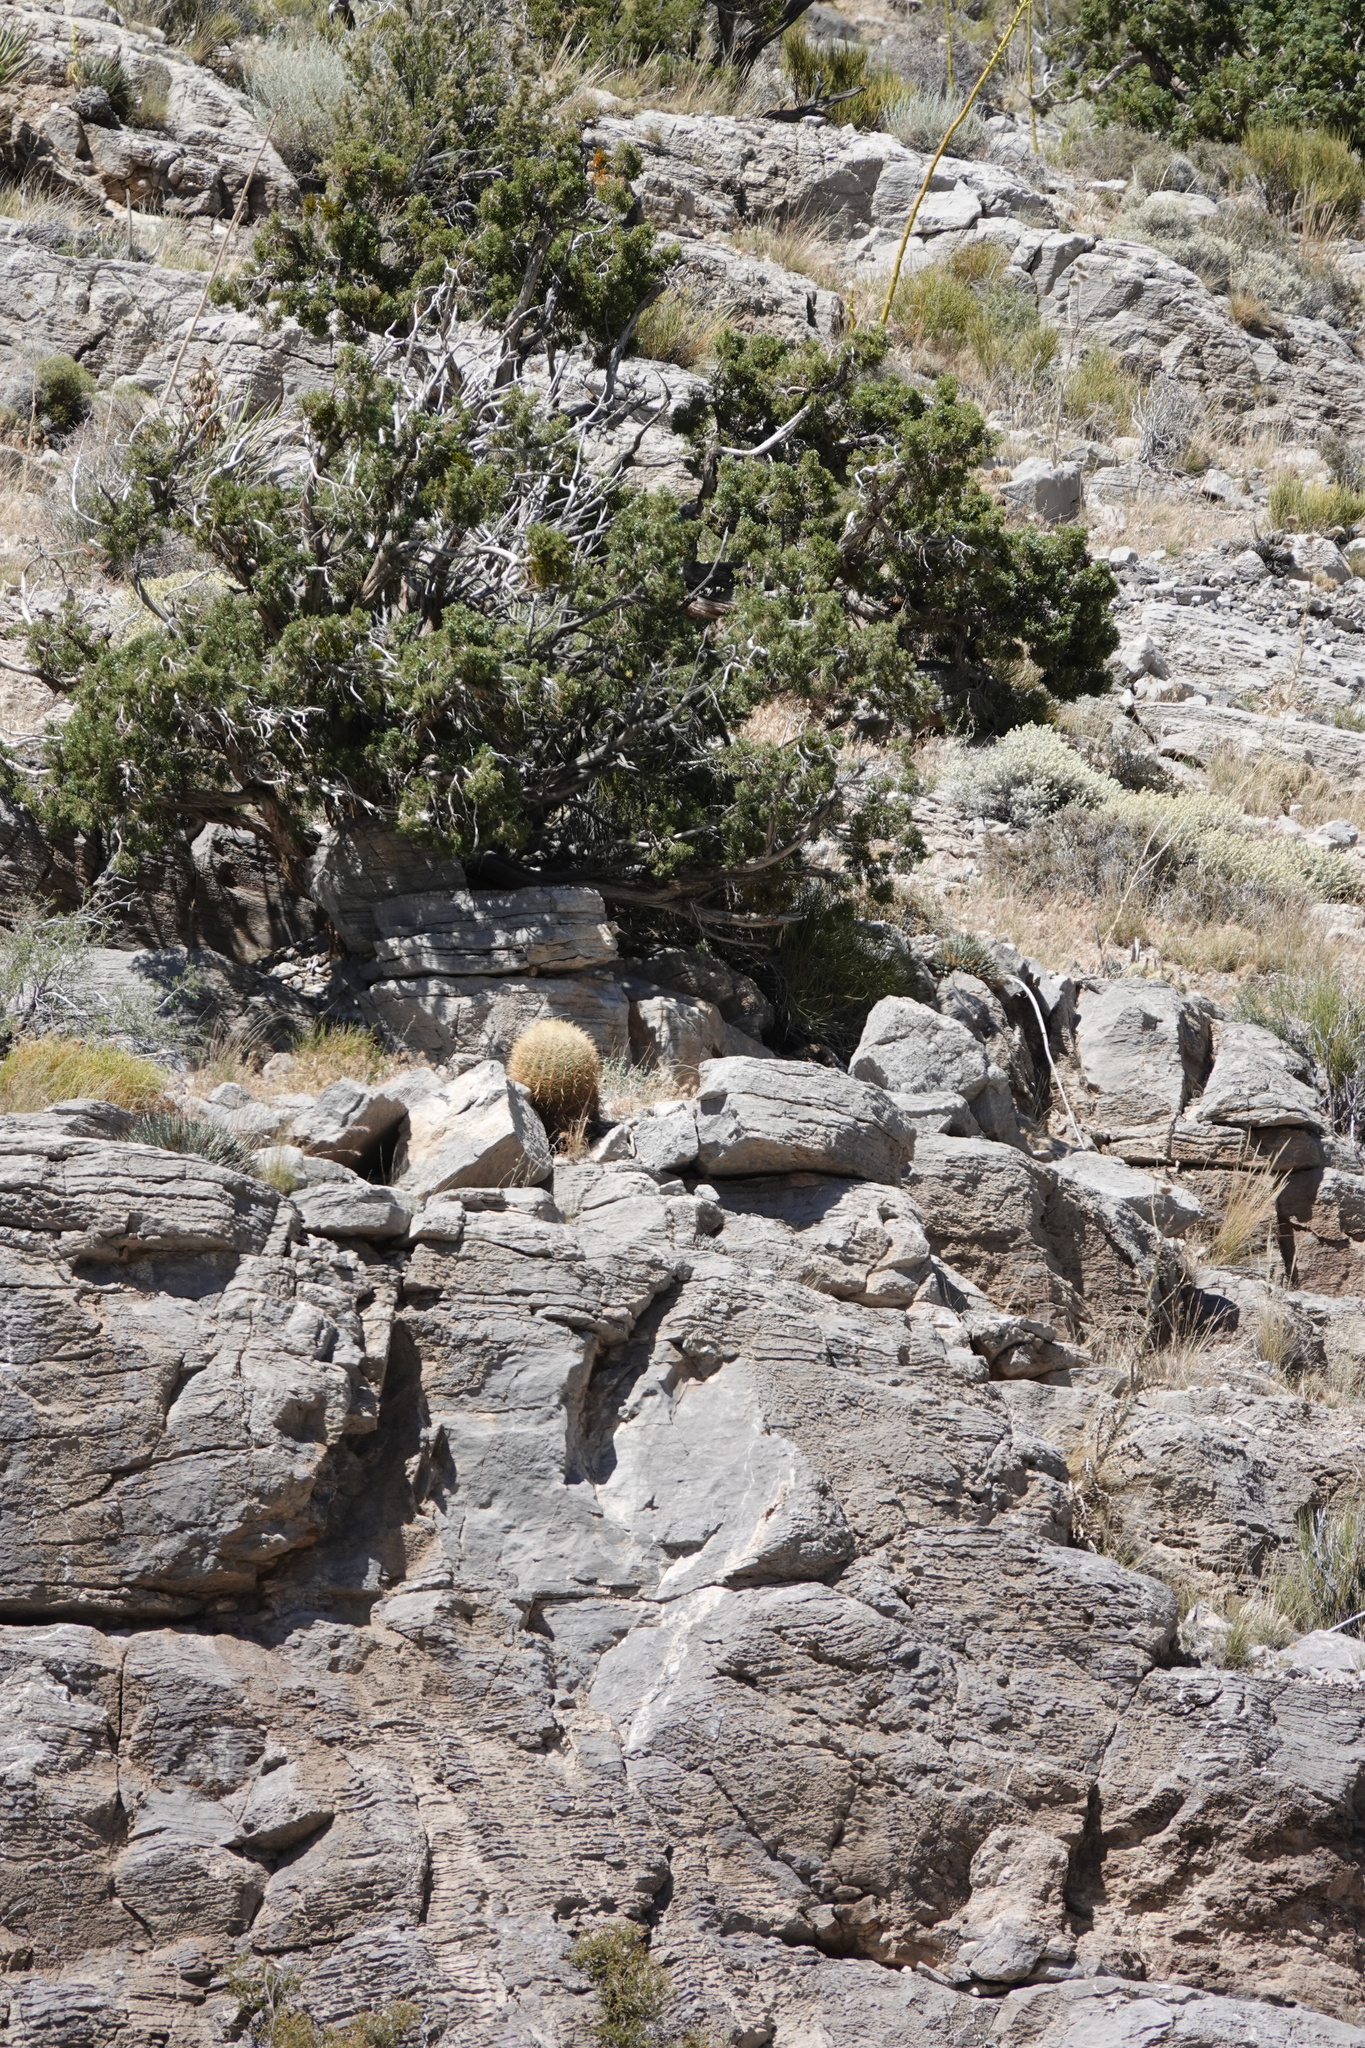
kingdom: Plantae
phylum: Tracheophyta
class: Magnoliopsida
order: Caryophyllales
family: Cactaceae
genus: Ferocactus
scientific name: Ferocactus cylindraceus
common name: California barrel cactus
